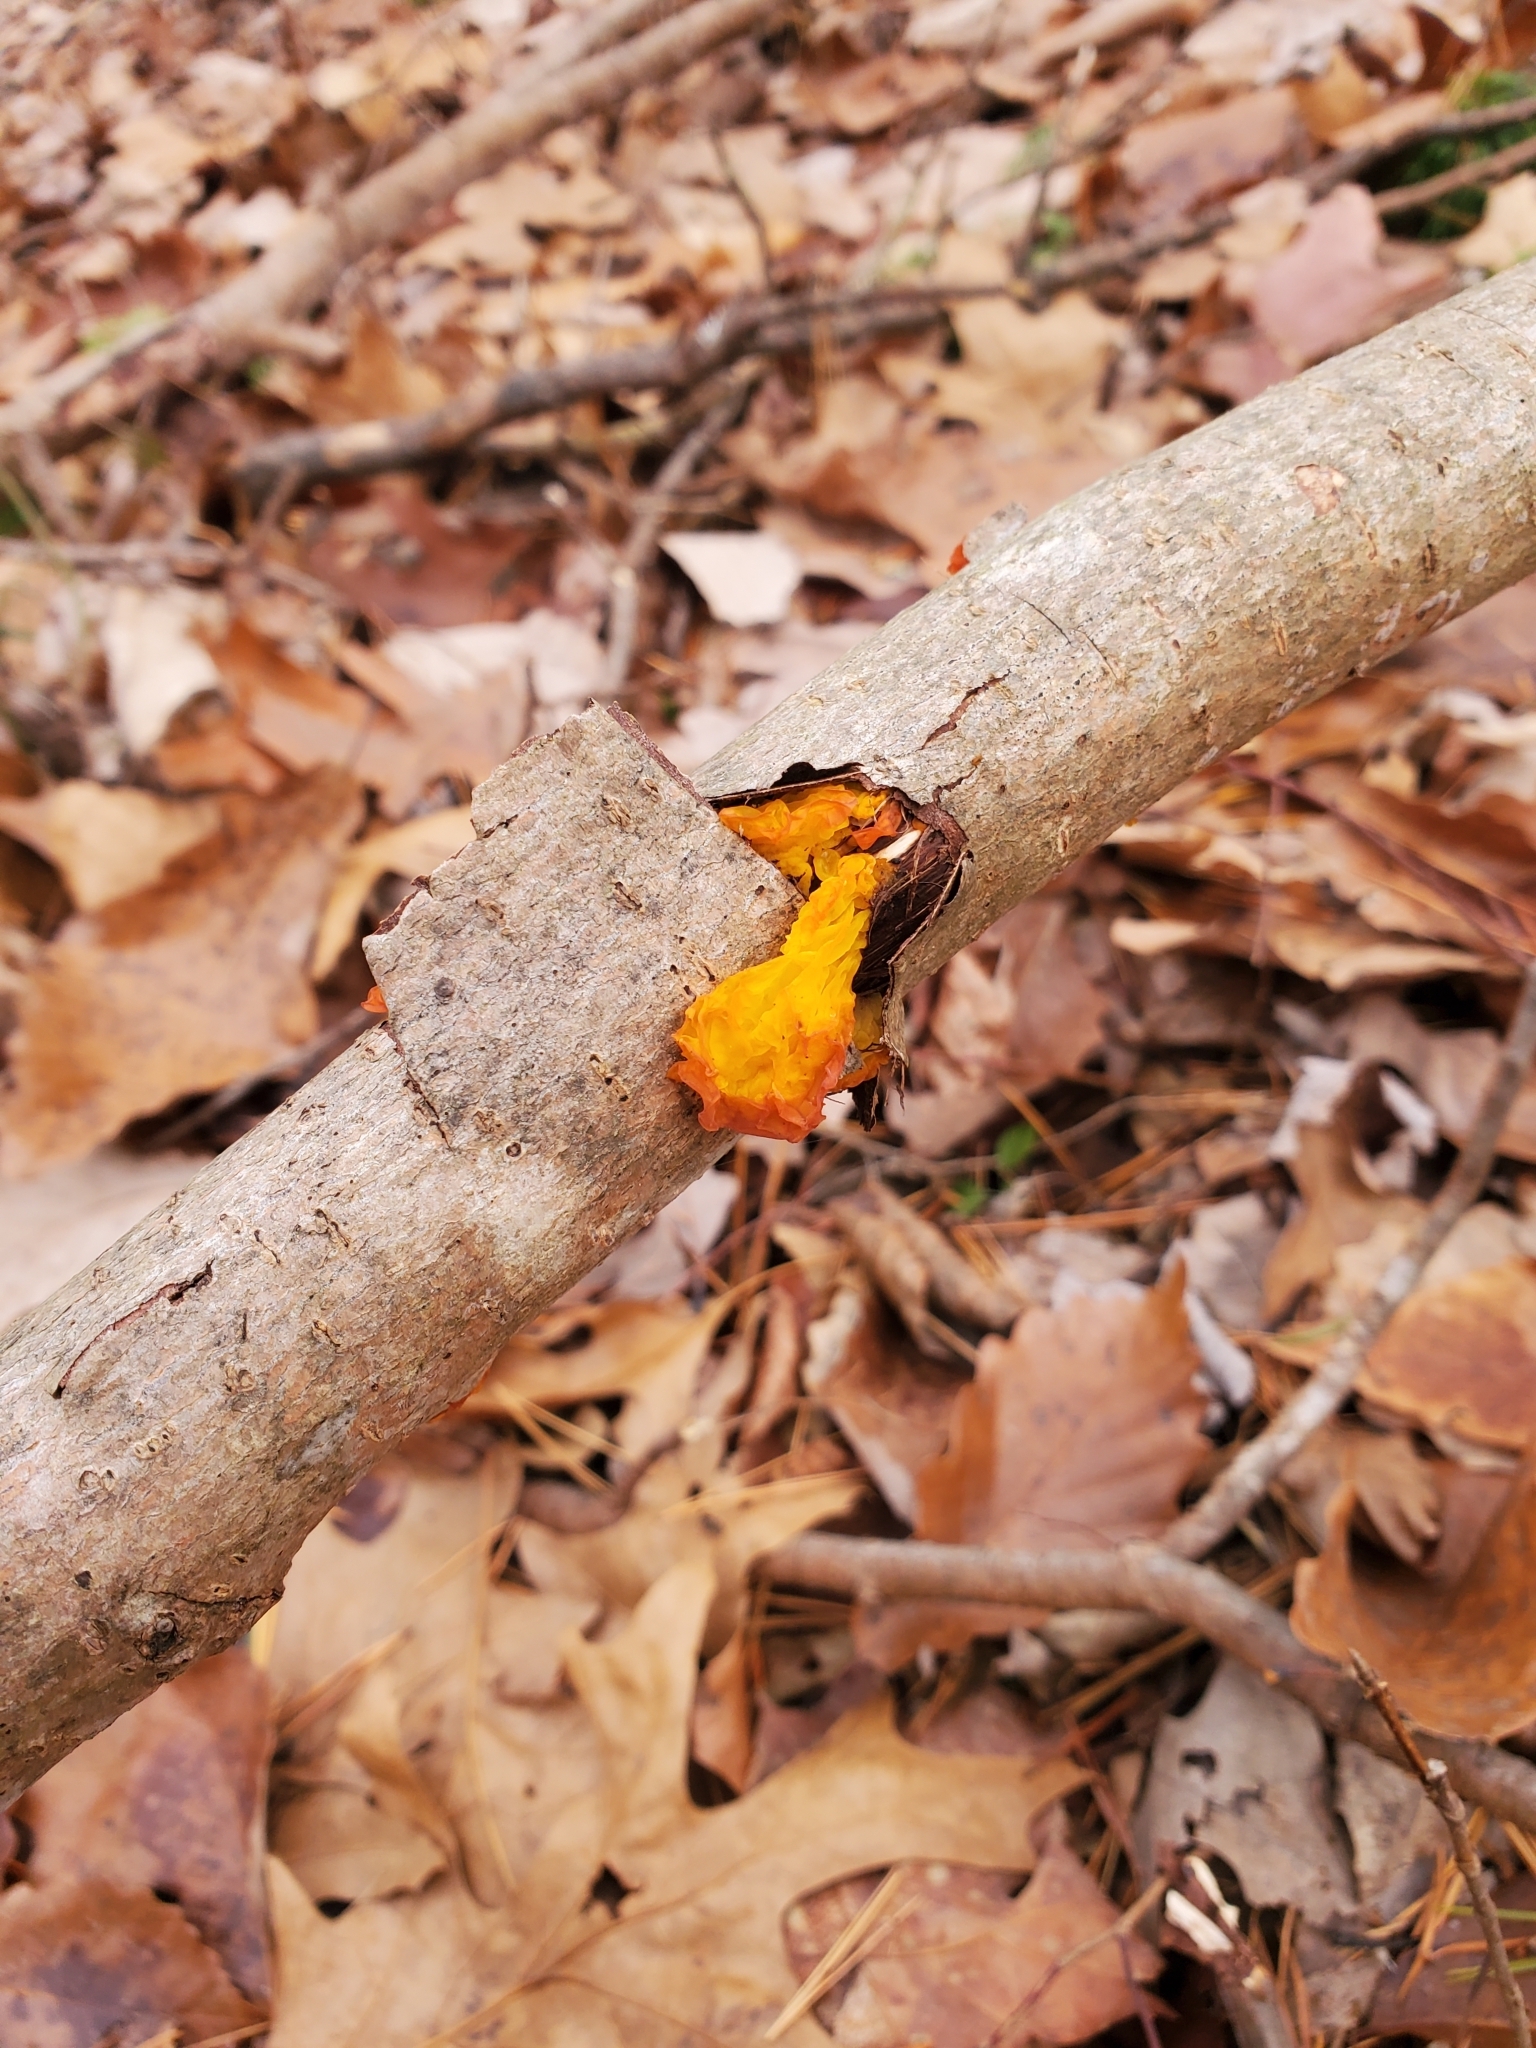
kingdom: Fungi
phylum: Basidiomycota
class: Tremellomycetes
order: Tremellales
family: Tremellaceae
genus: Tremella
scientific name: Tremella mesenterica
